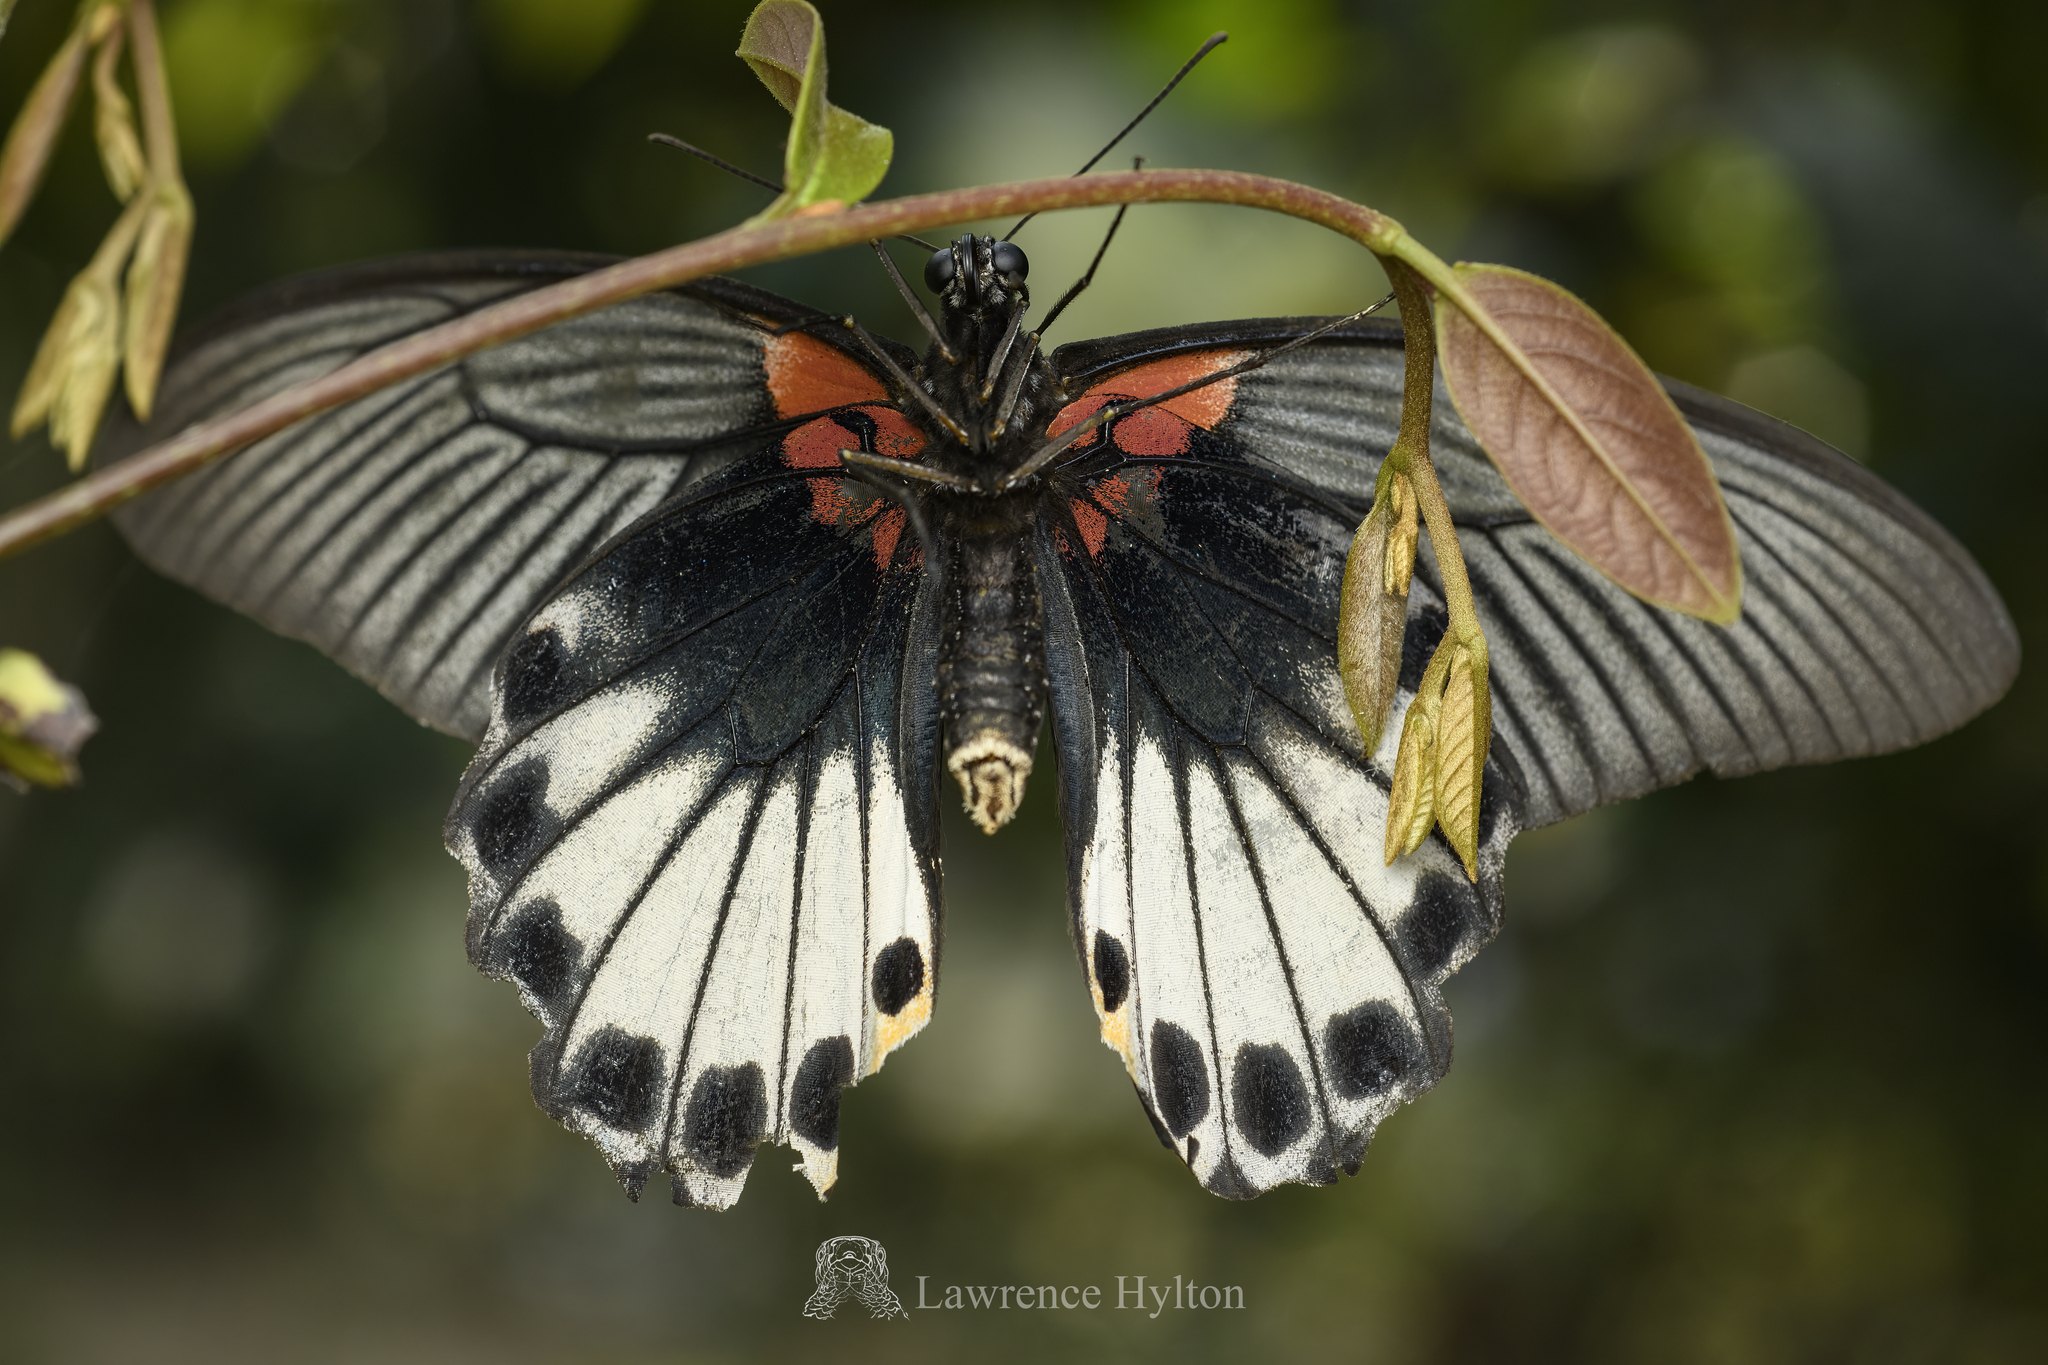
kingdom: Animalia
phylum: Arthropoda
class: Insecta
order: Lepidoptera
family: Papilionidae
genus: Papilio
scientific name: Papilio memnon
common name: Great mormon
